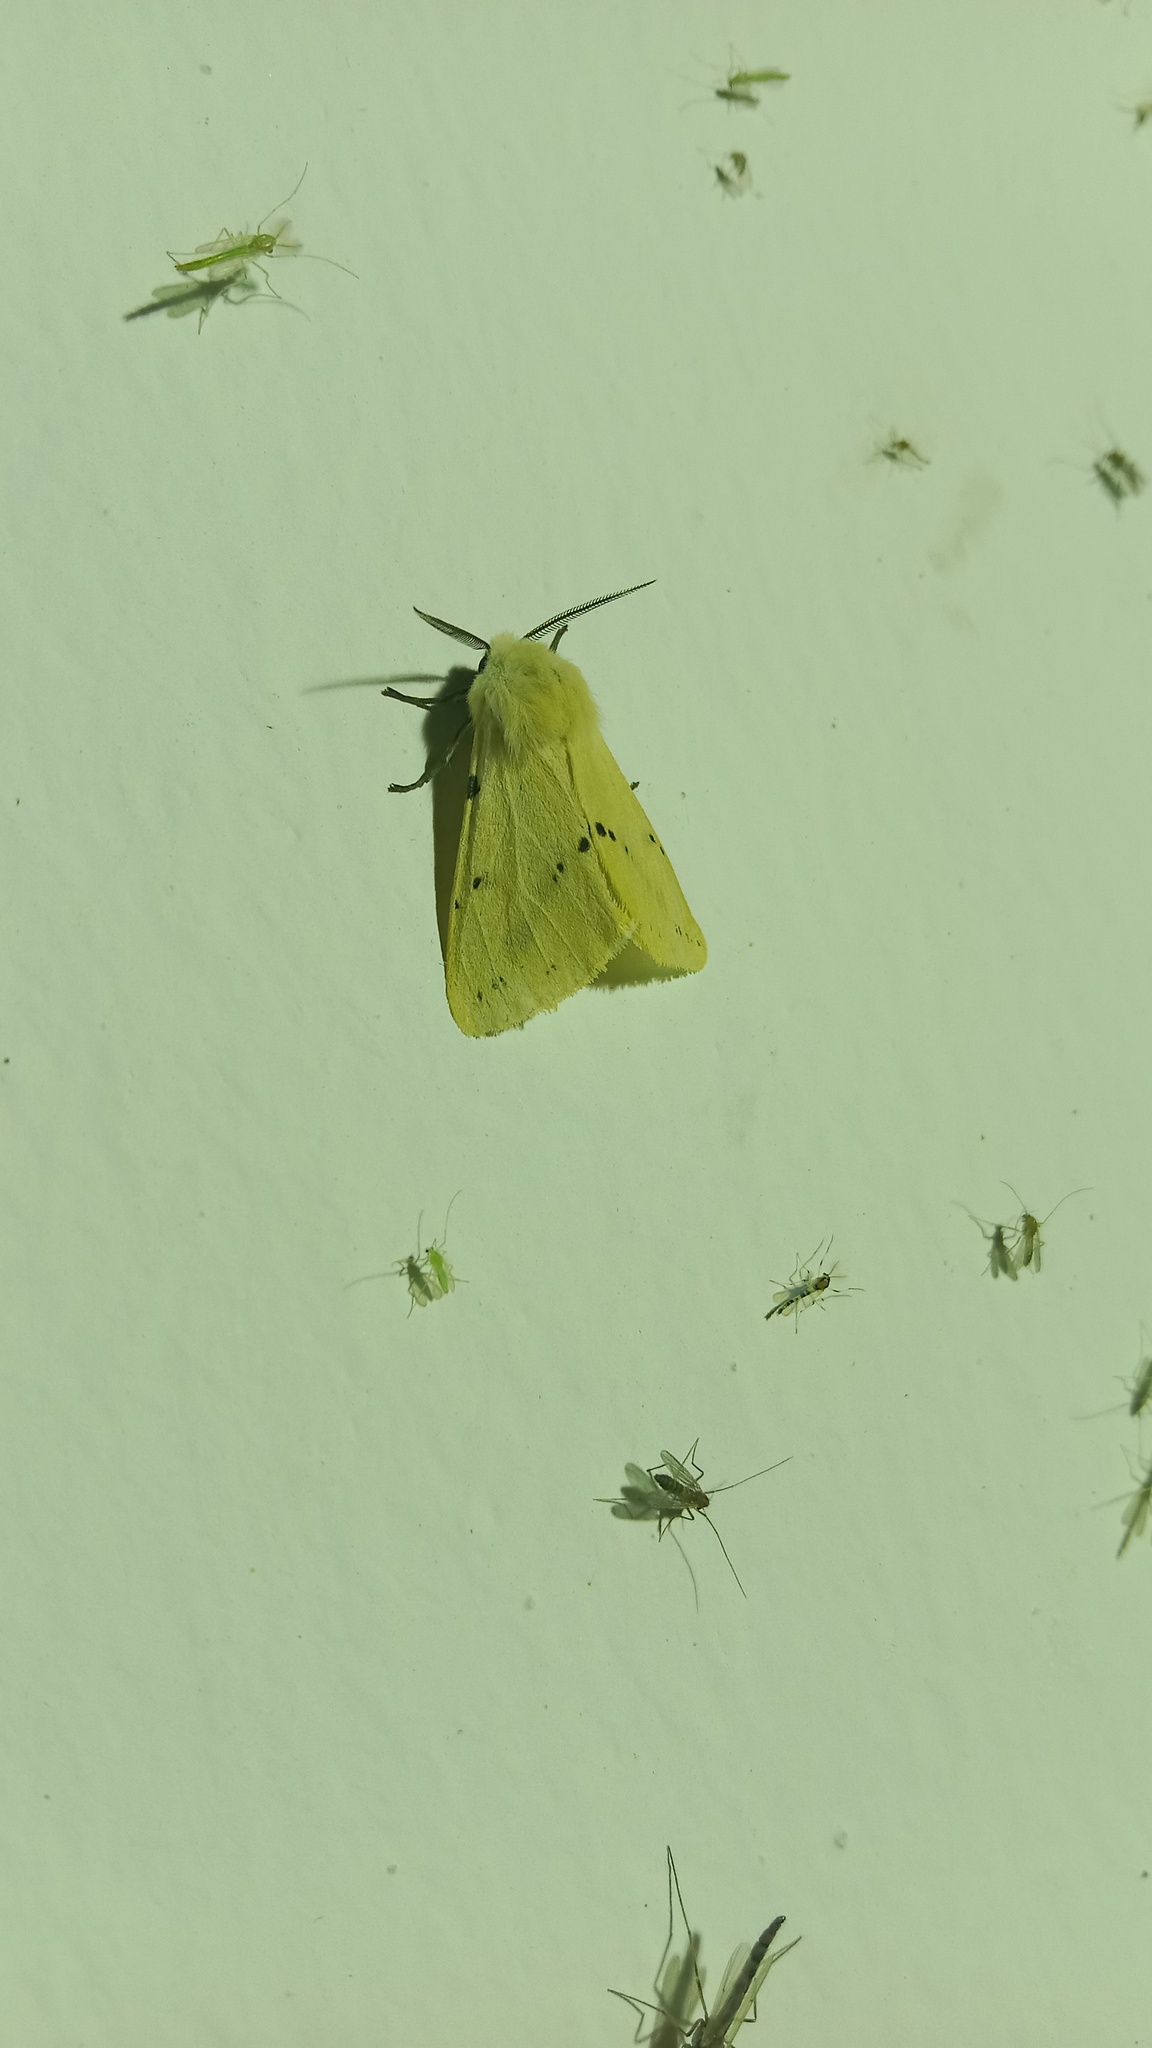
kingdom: Animalia
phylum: Arthropoda
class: Insecta
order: Lepidoptera
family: Erebidae
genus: Spilarctia
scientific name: Spilarctia lutea
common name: Buff ermine
